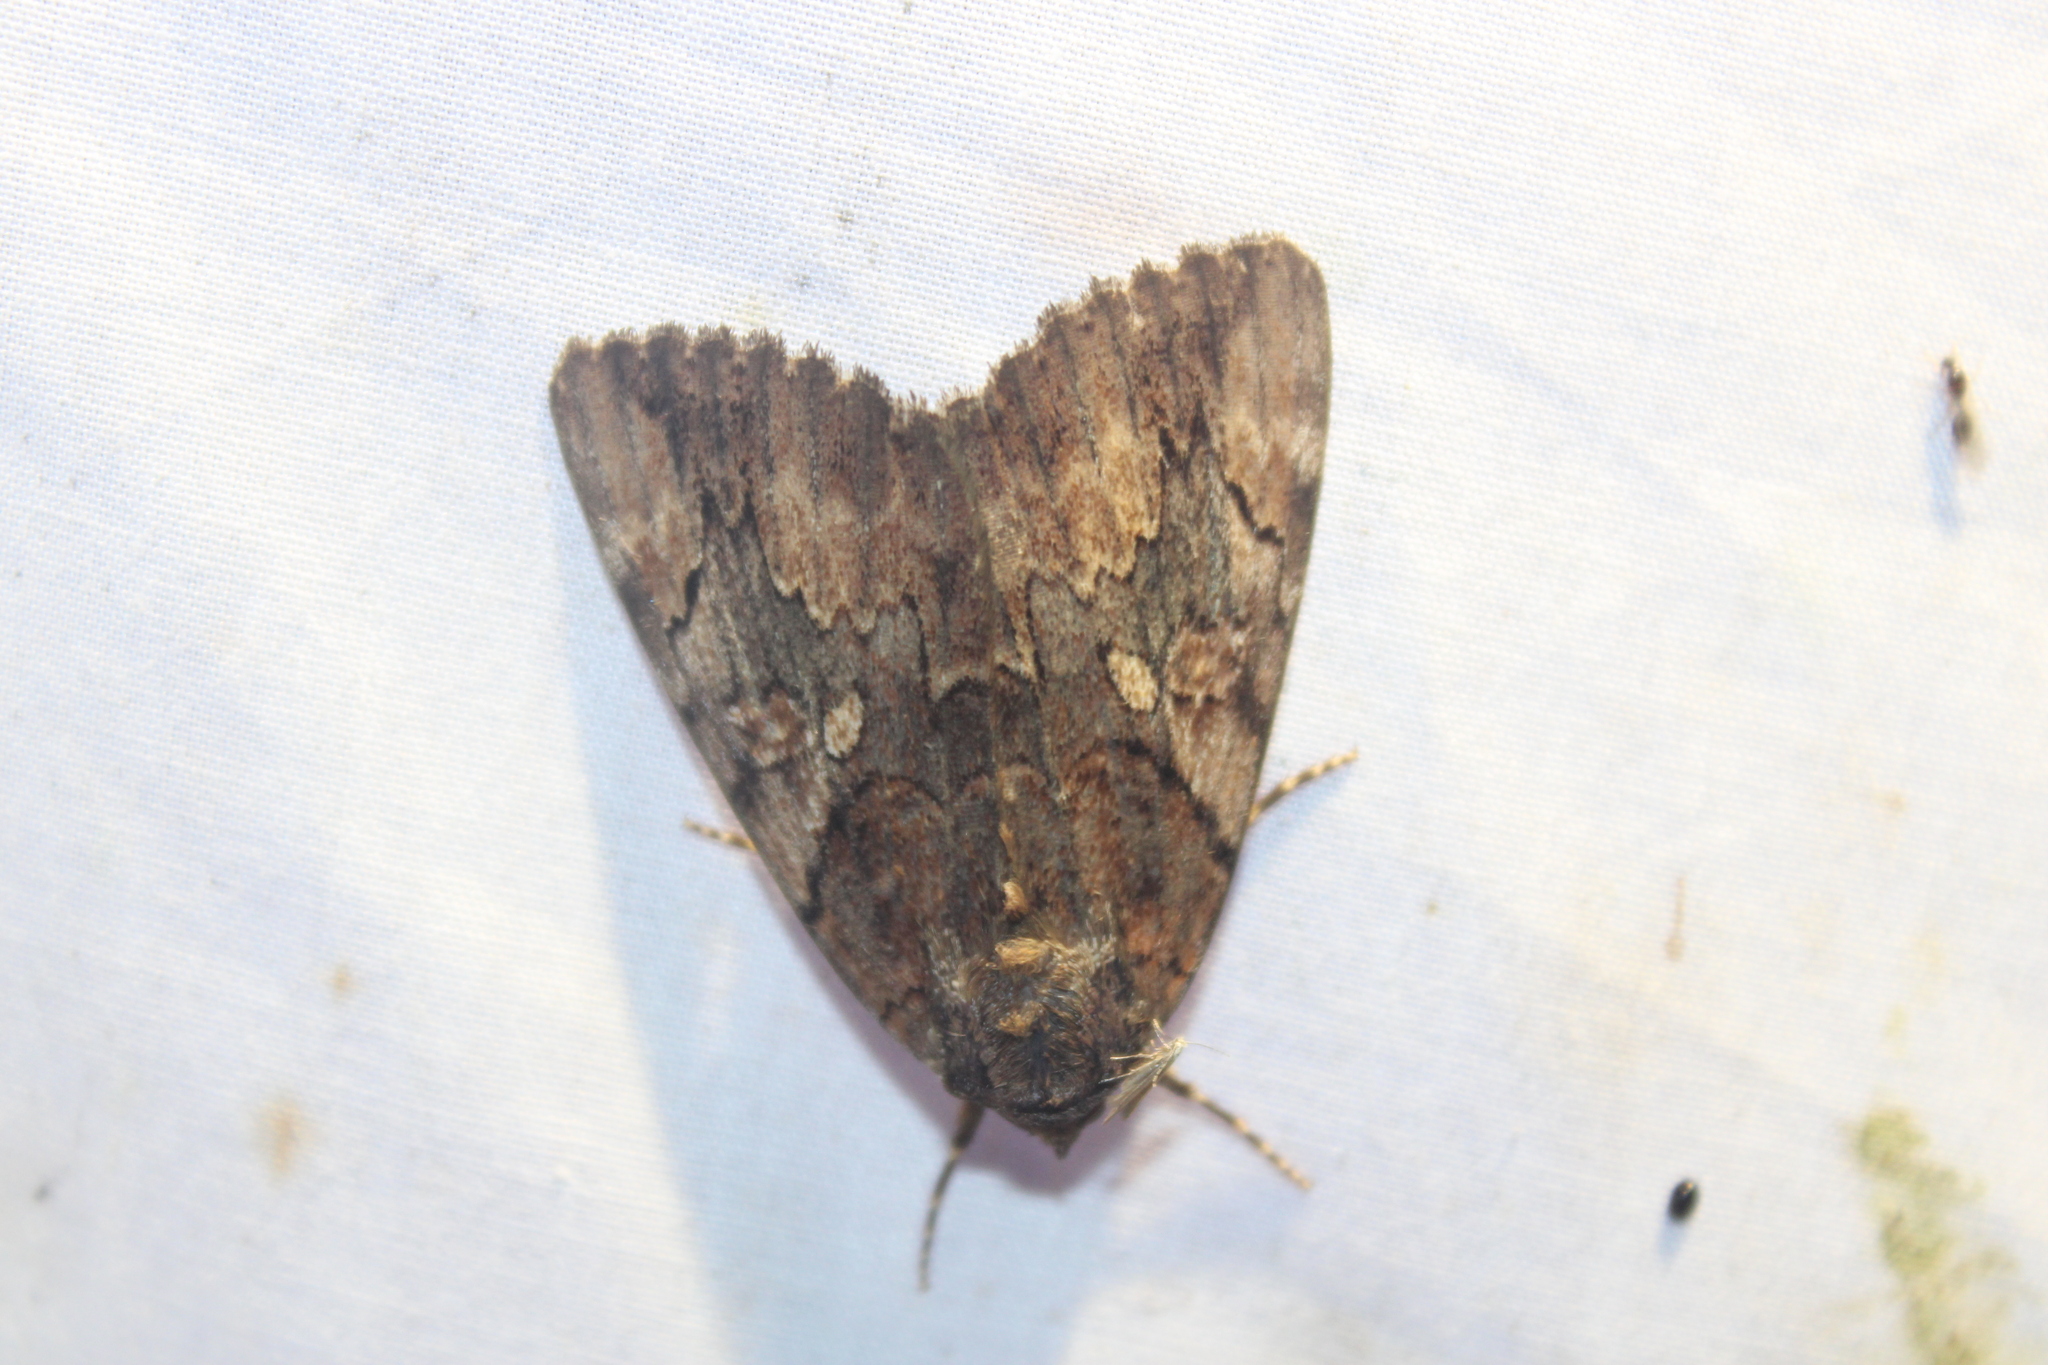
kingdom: Animalia
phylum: Arthropoda
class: Insecta
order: Lepidoptera
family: Erebidae
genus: Catocala
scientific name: Catocala muliercula
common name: The little wife underwing
